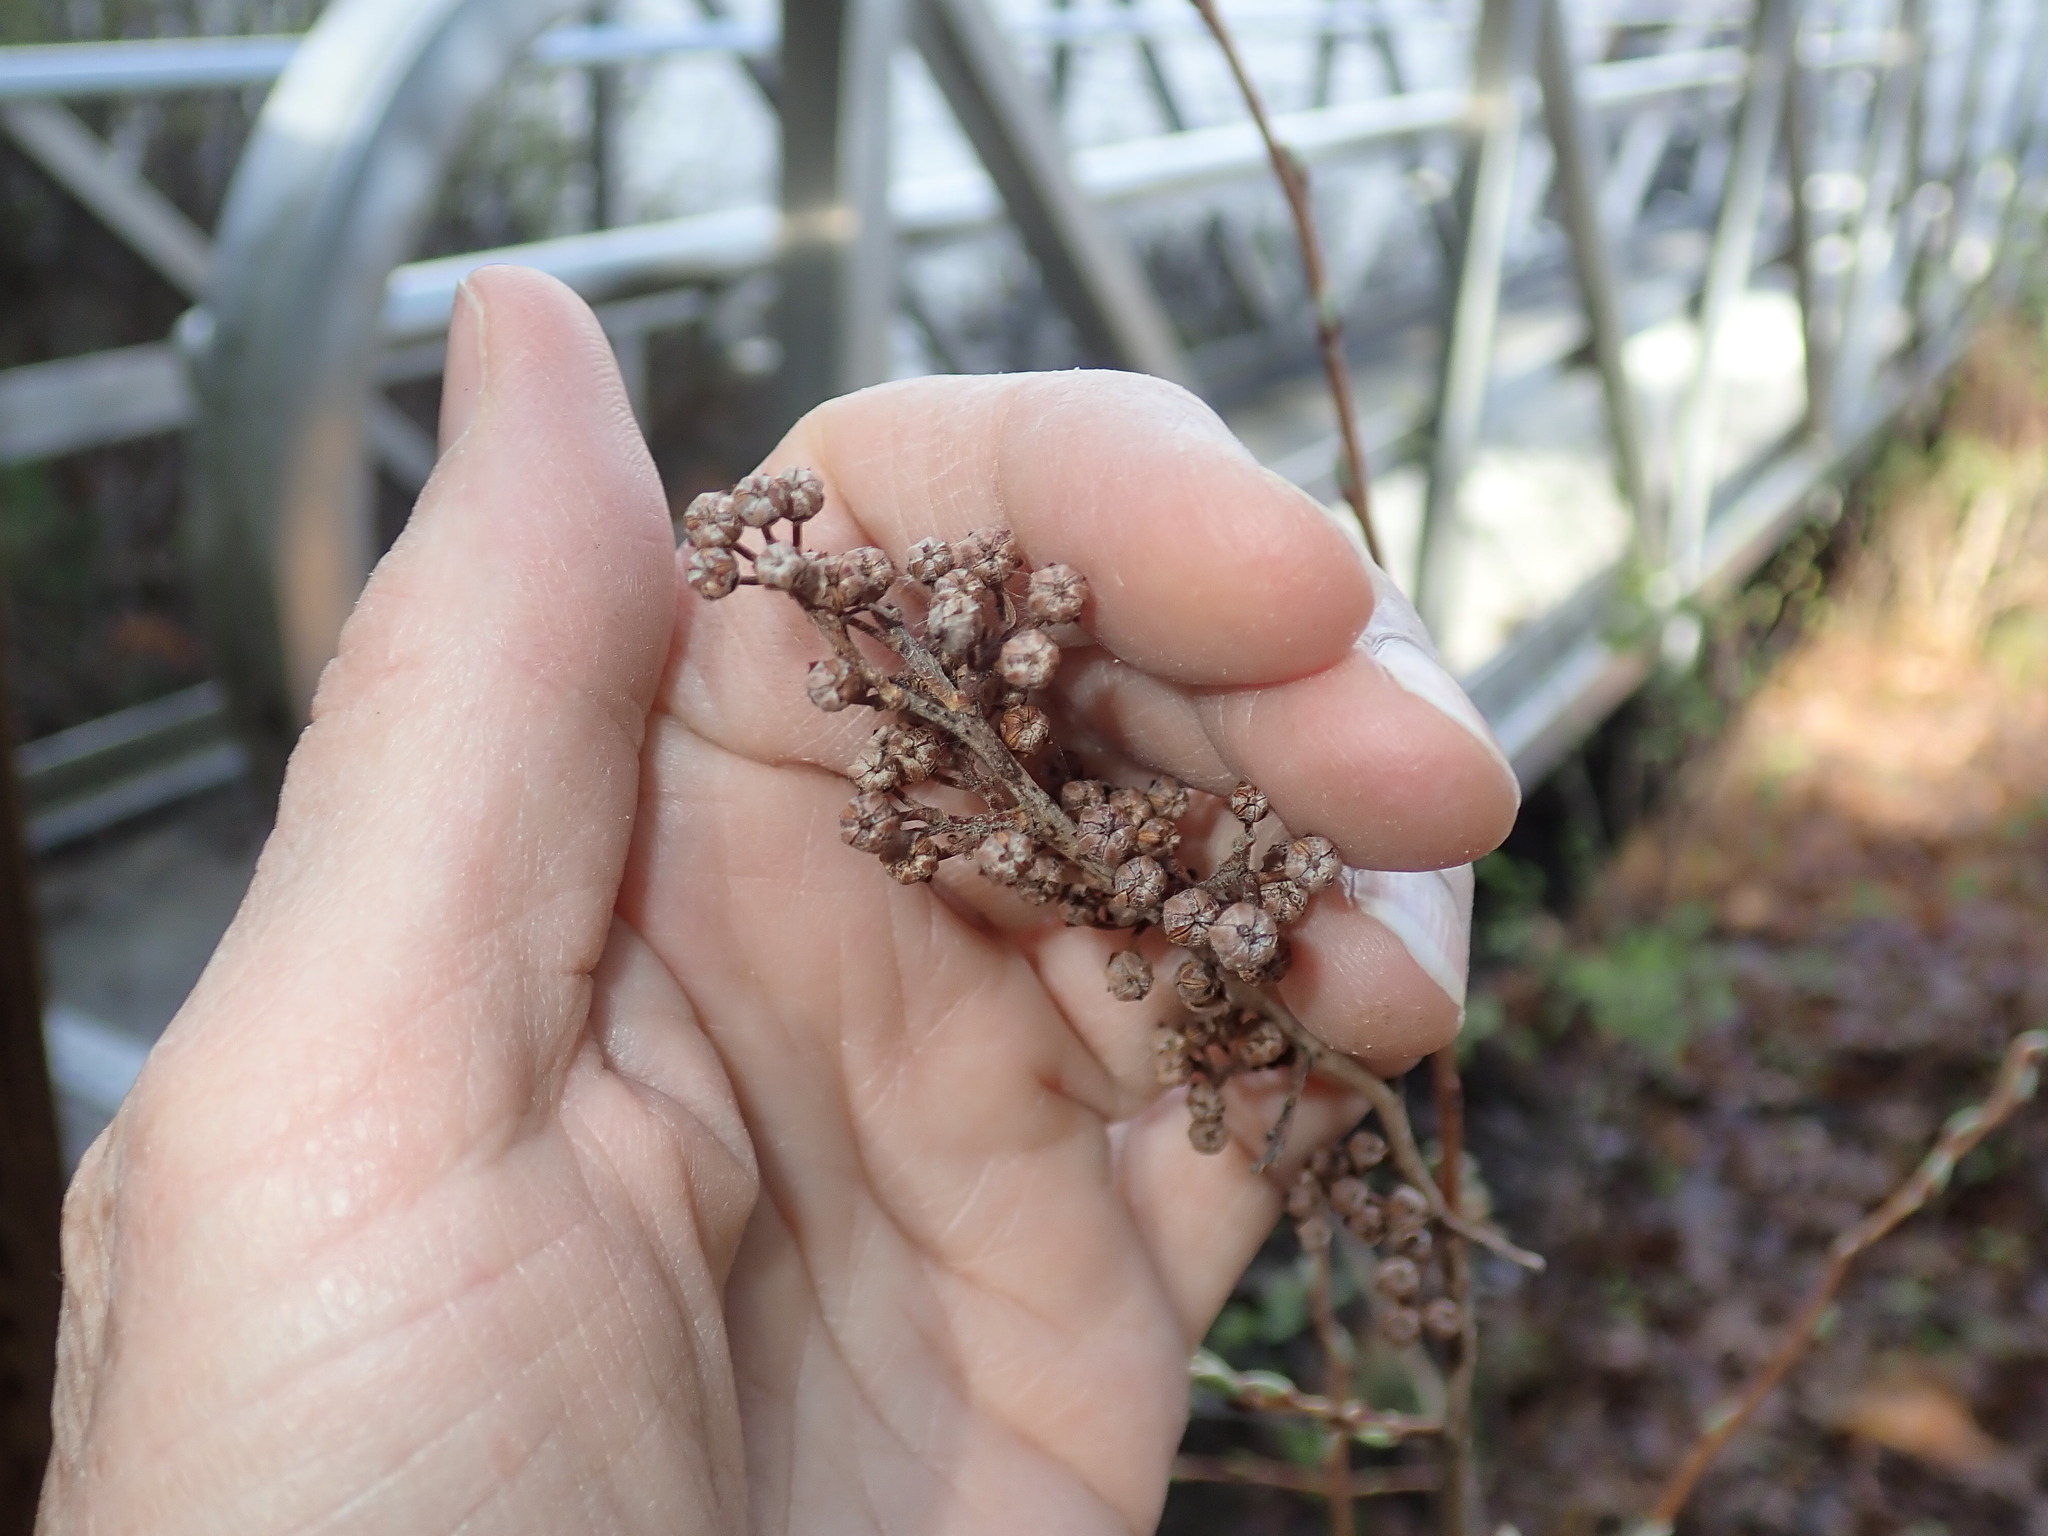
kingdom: Plantae
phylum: Tracheophyta
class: Magnoliopsida
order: Ericales
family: Ericaceae
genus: Lyonia
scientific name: Lyonia ligustrina
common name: Maleberry
